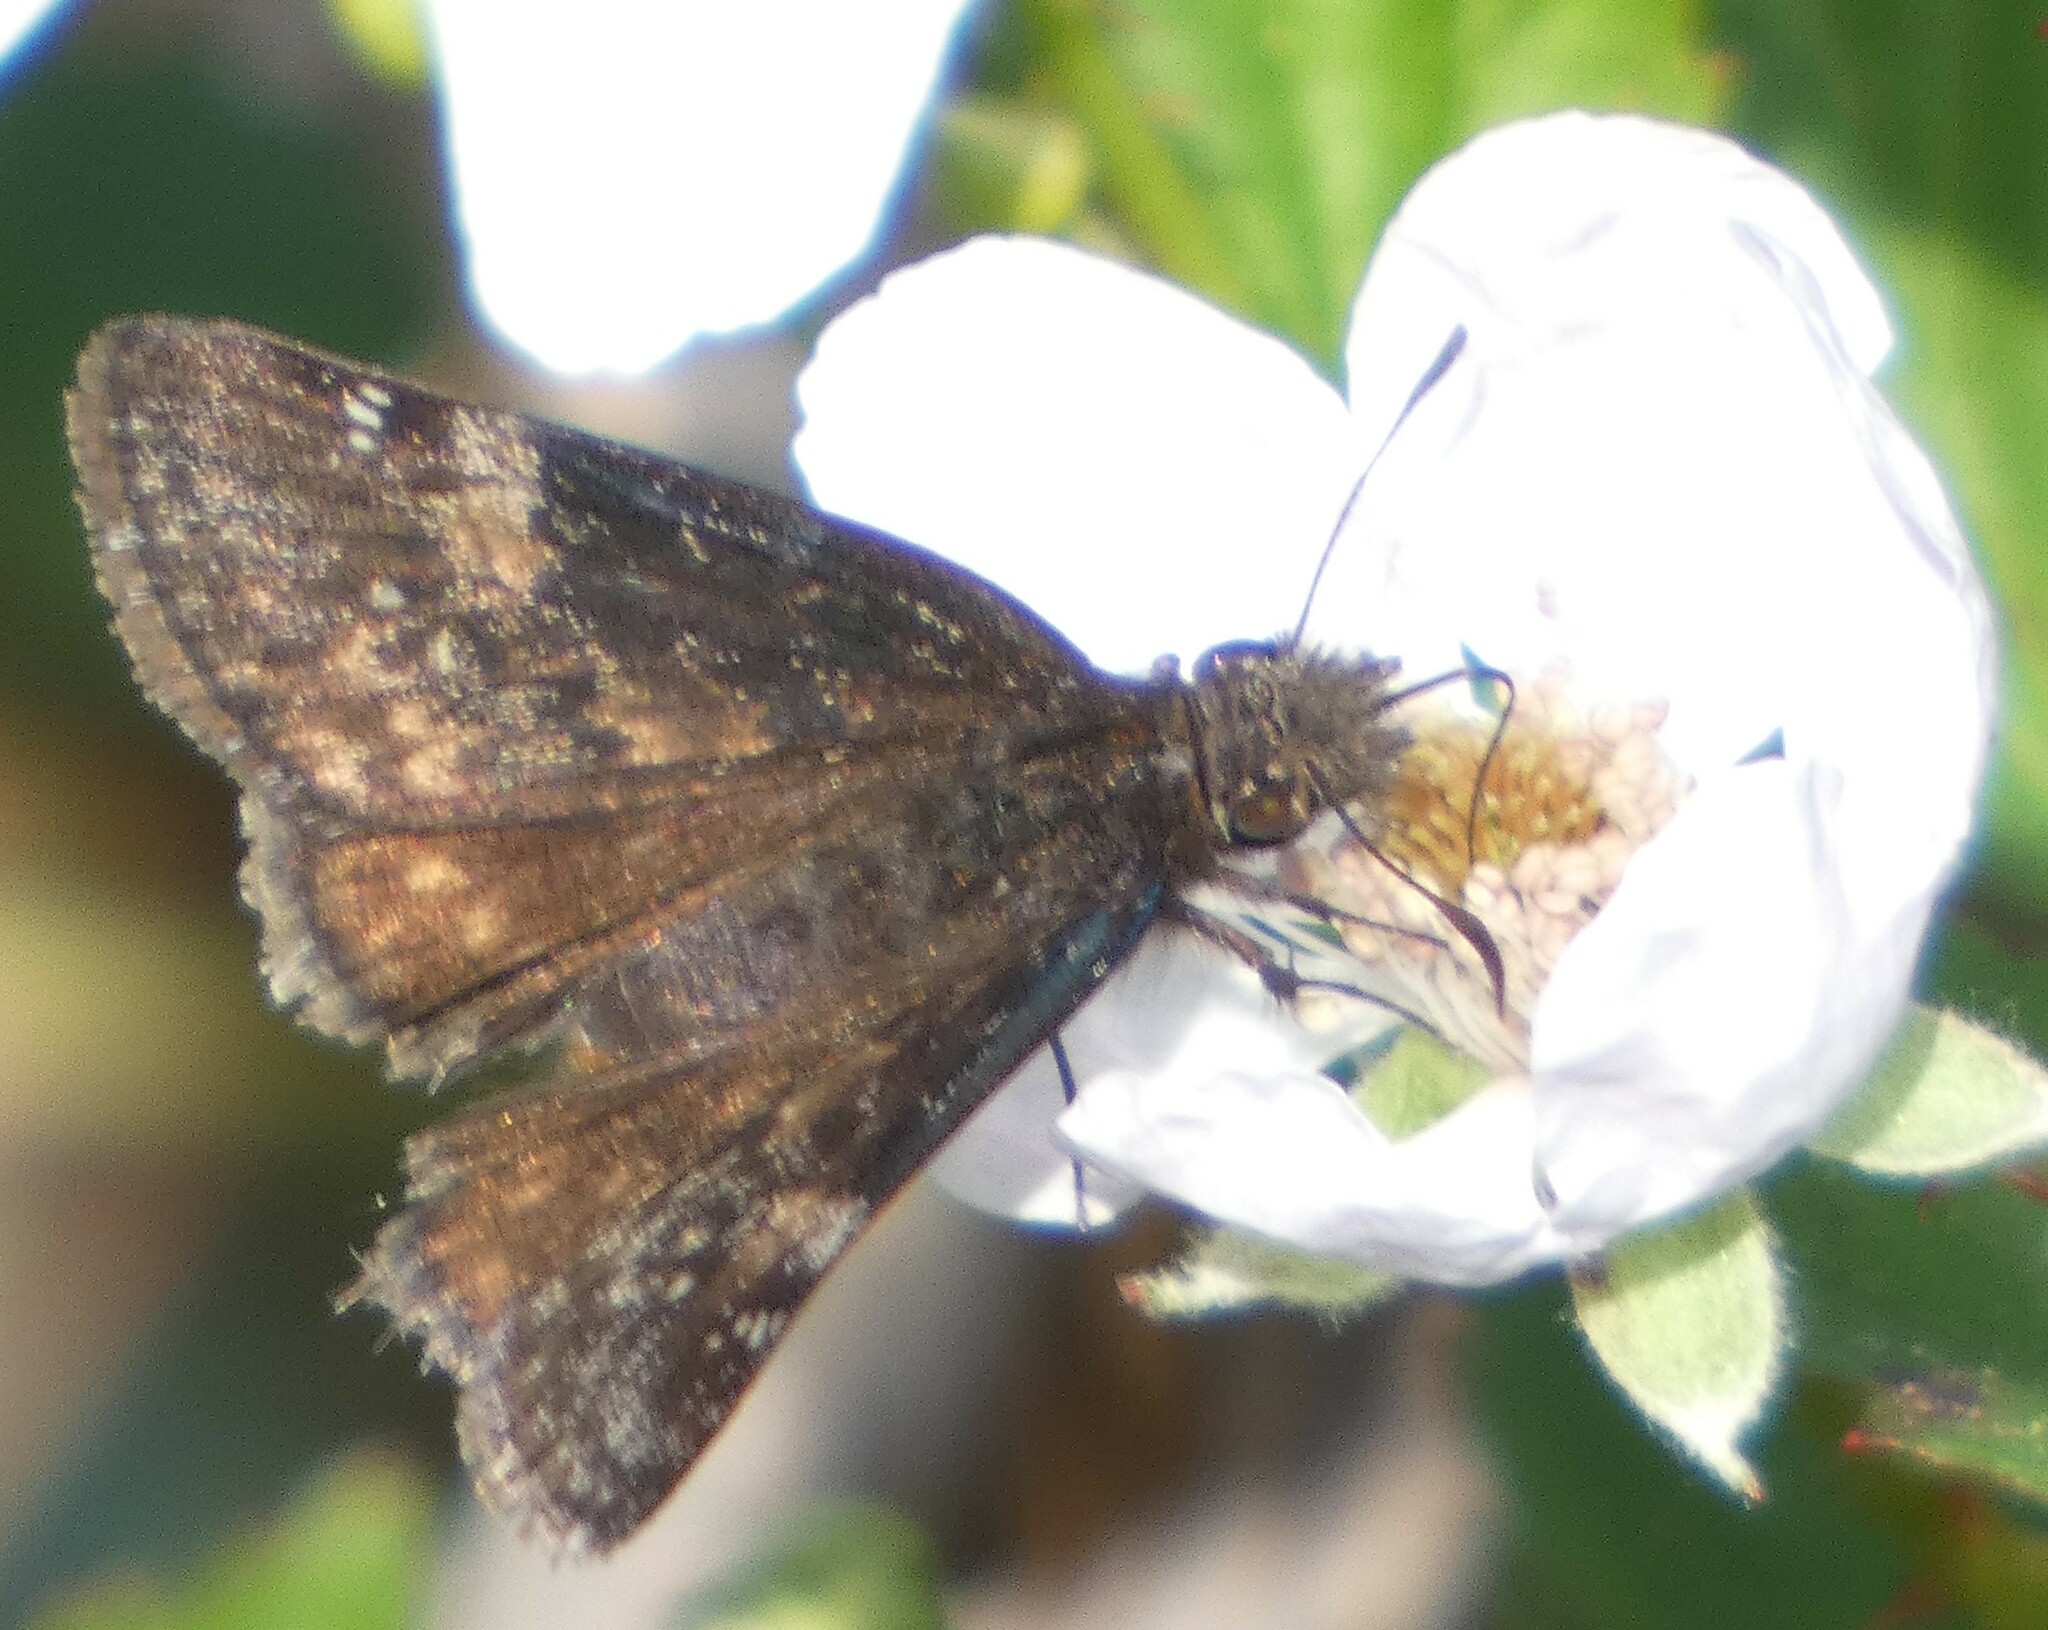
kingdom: Animalia
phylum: Arthropoda
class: Insecta
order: Lepidoptera
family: Hesperiidae
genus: Erynnis
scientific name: Erynnis zarucco
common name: Zarucco duskywing
